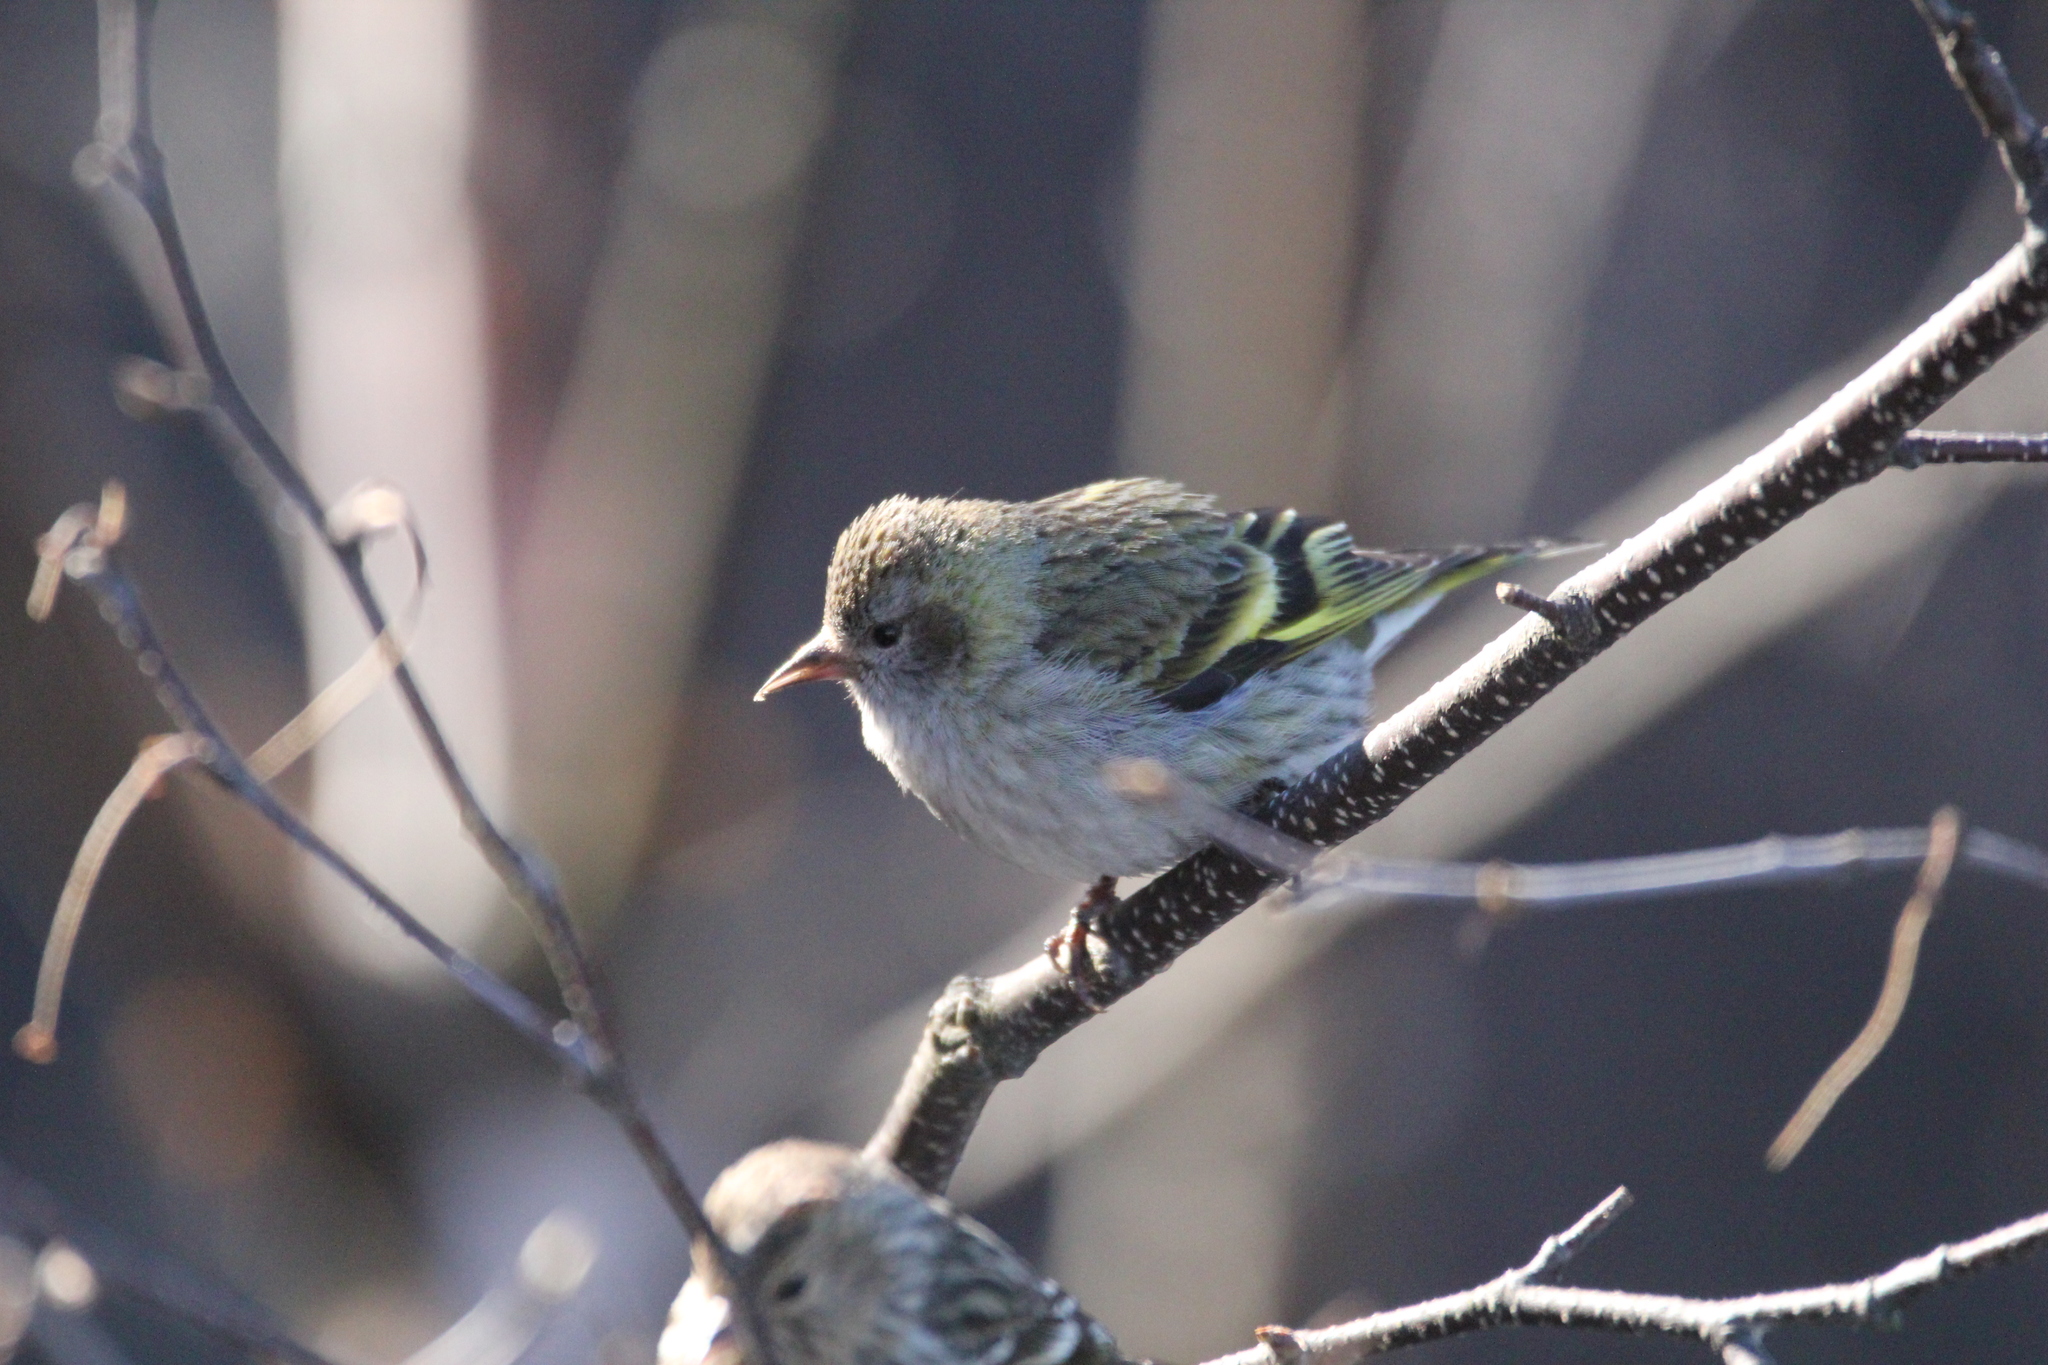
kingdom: Animalia
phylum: Chordata
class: Aves
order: Passeriformes
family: Fringillidae
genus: Spinus
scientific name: Spinus pinus
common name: Pine siskin
